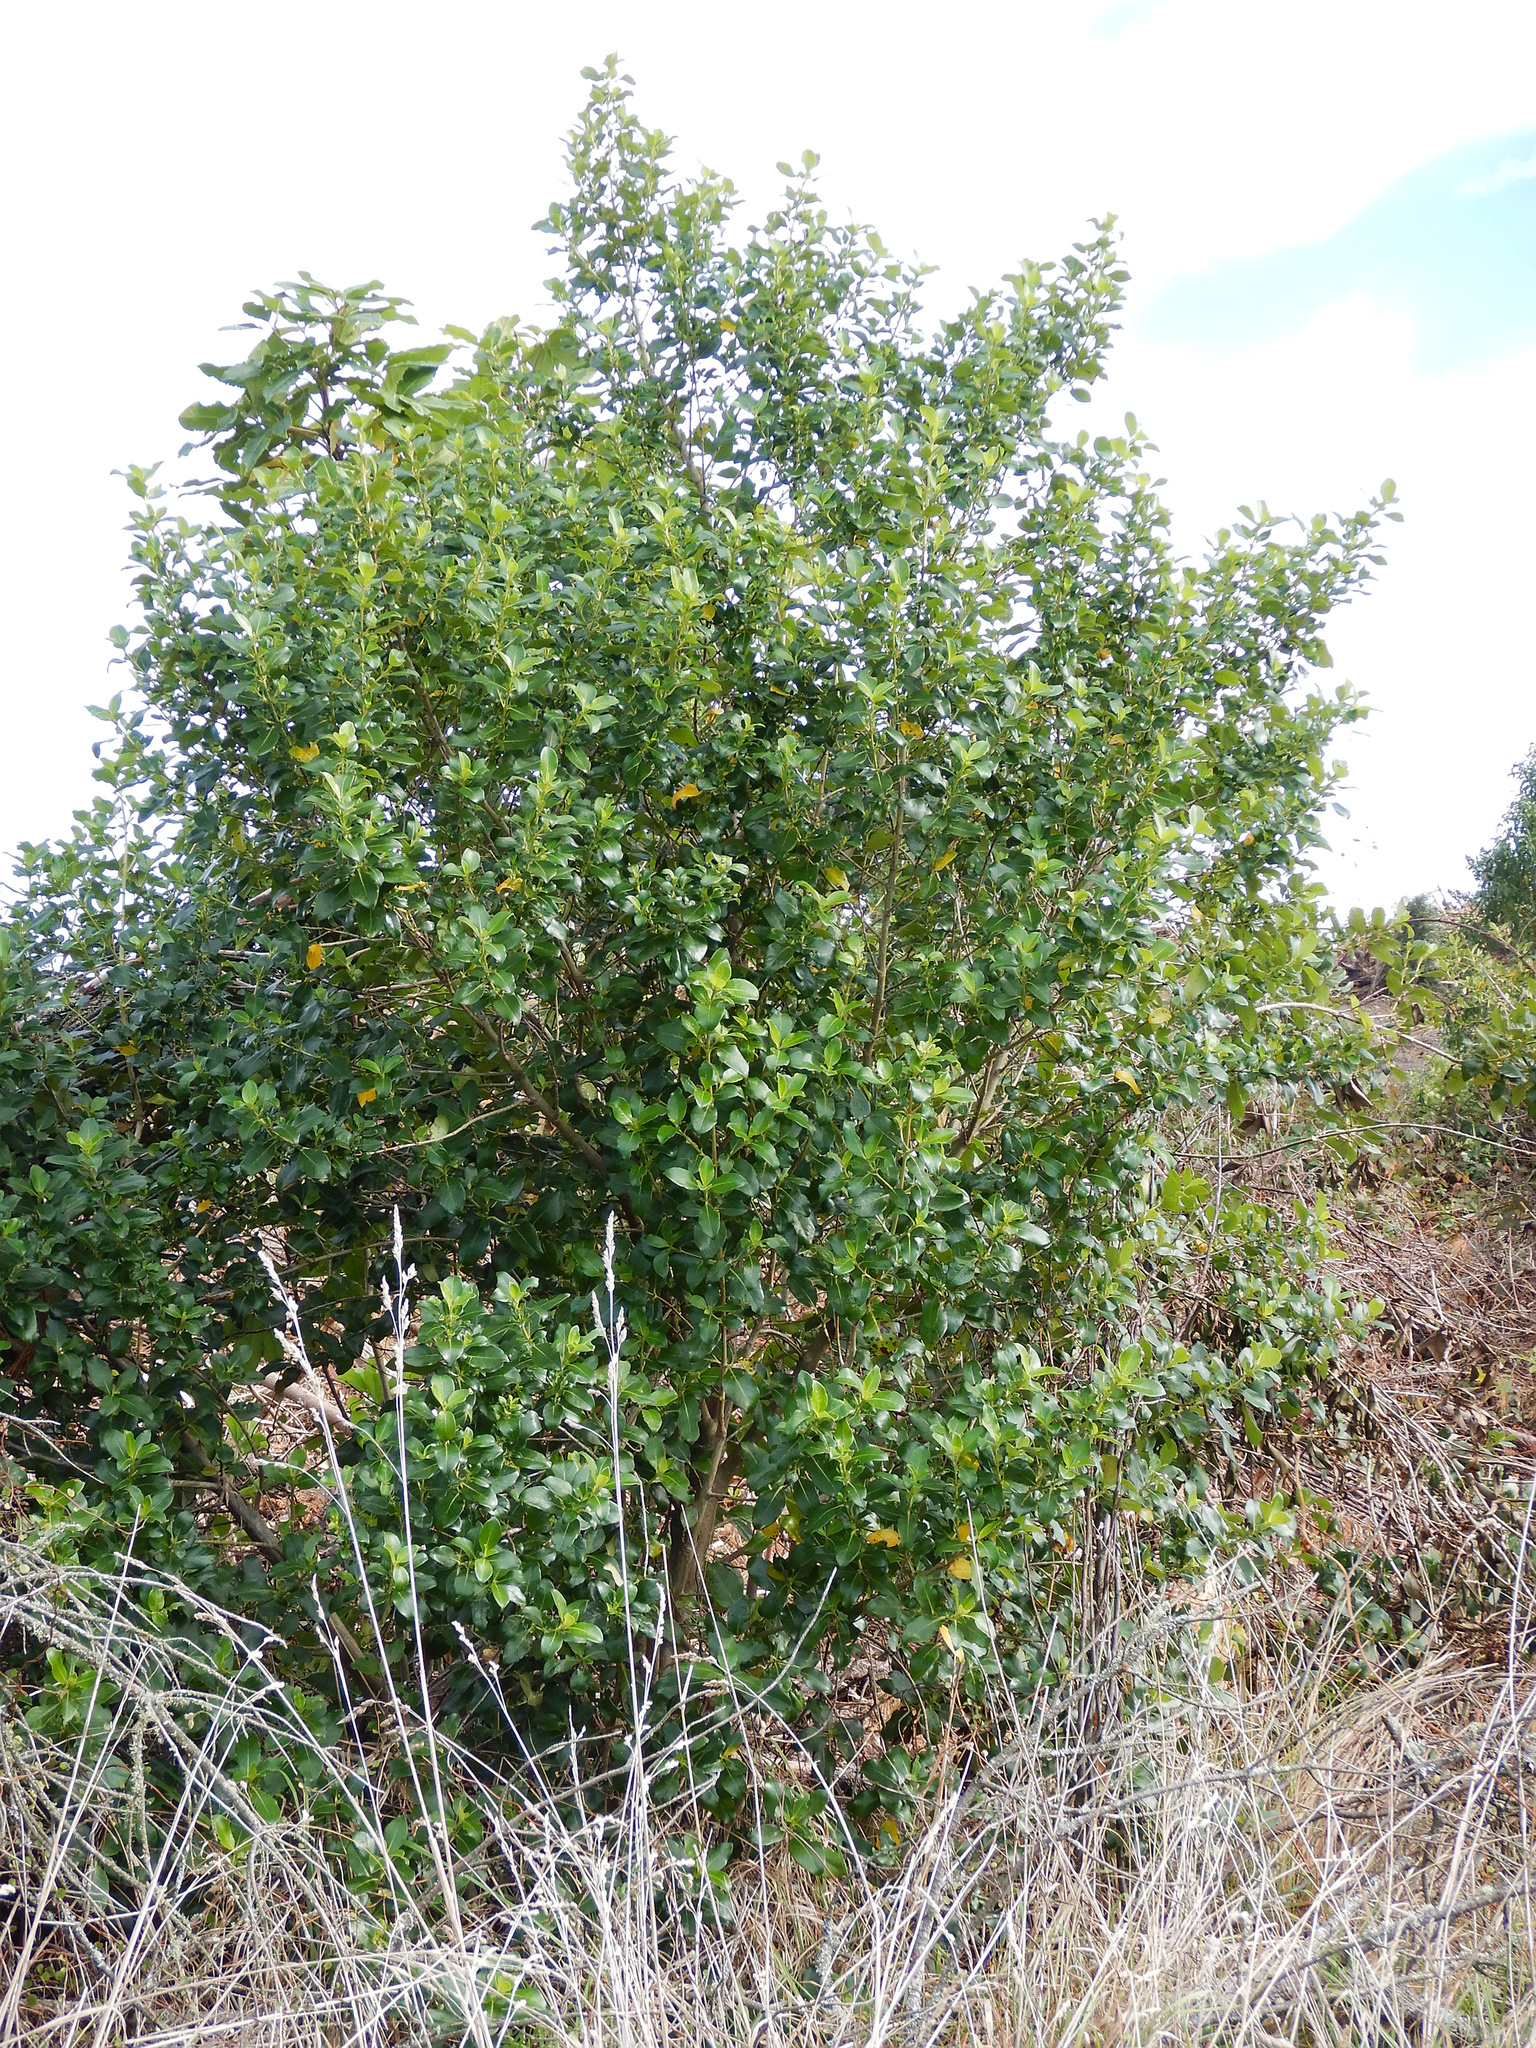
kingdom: Plantae
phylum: Tracheophyta
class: Magnoliopsida
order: Gentianales
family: Rubiaceae
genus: Coprosma
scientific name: Coprosma robusta
